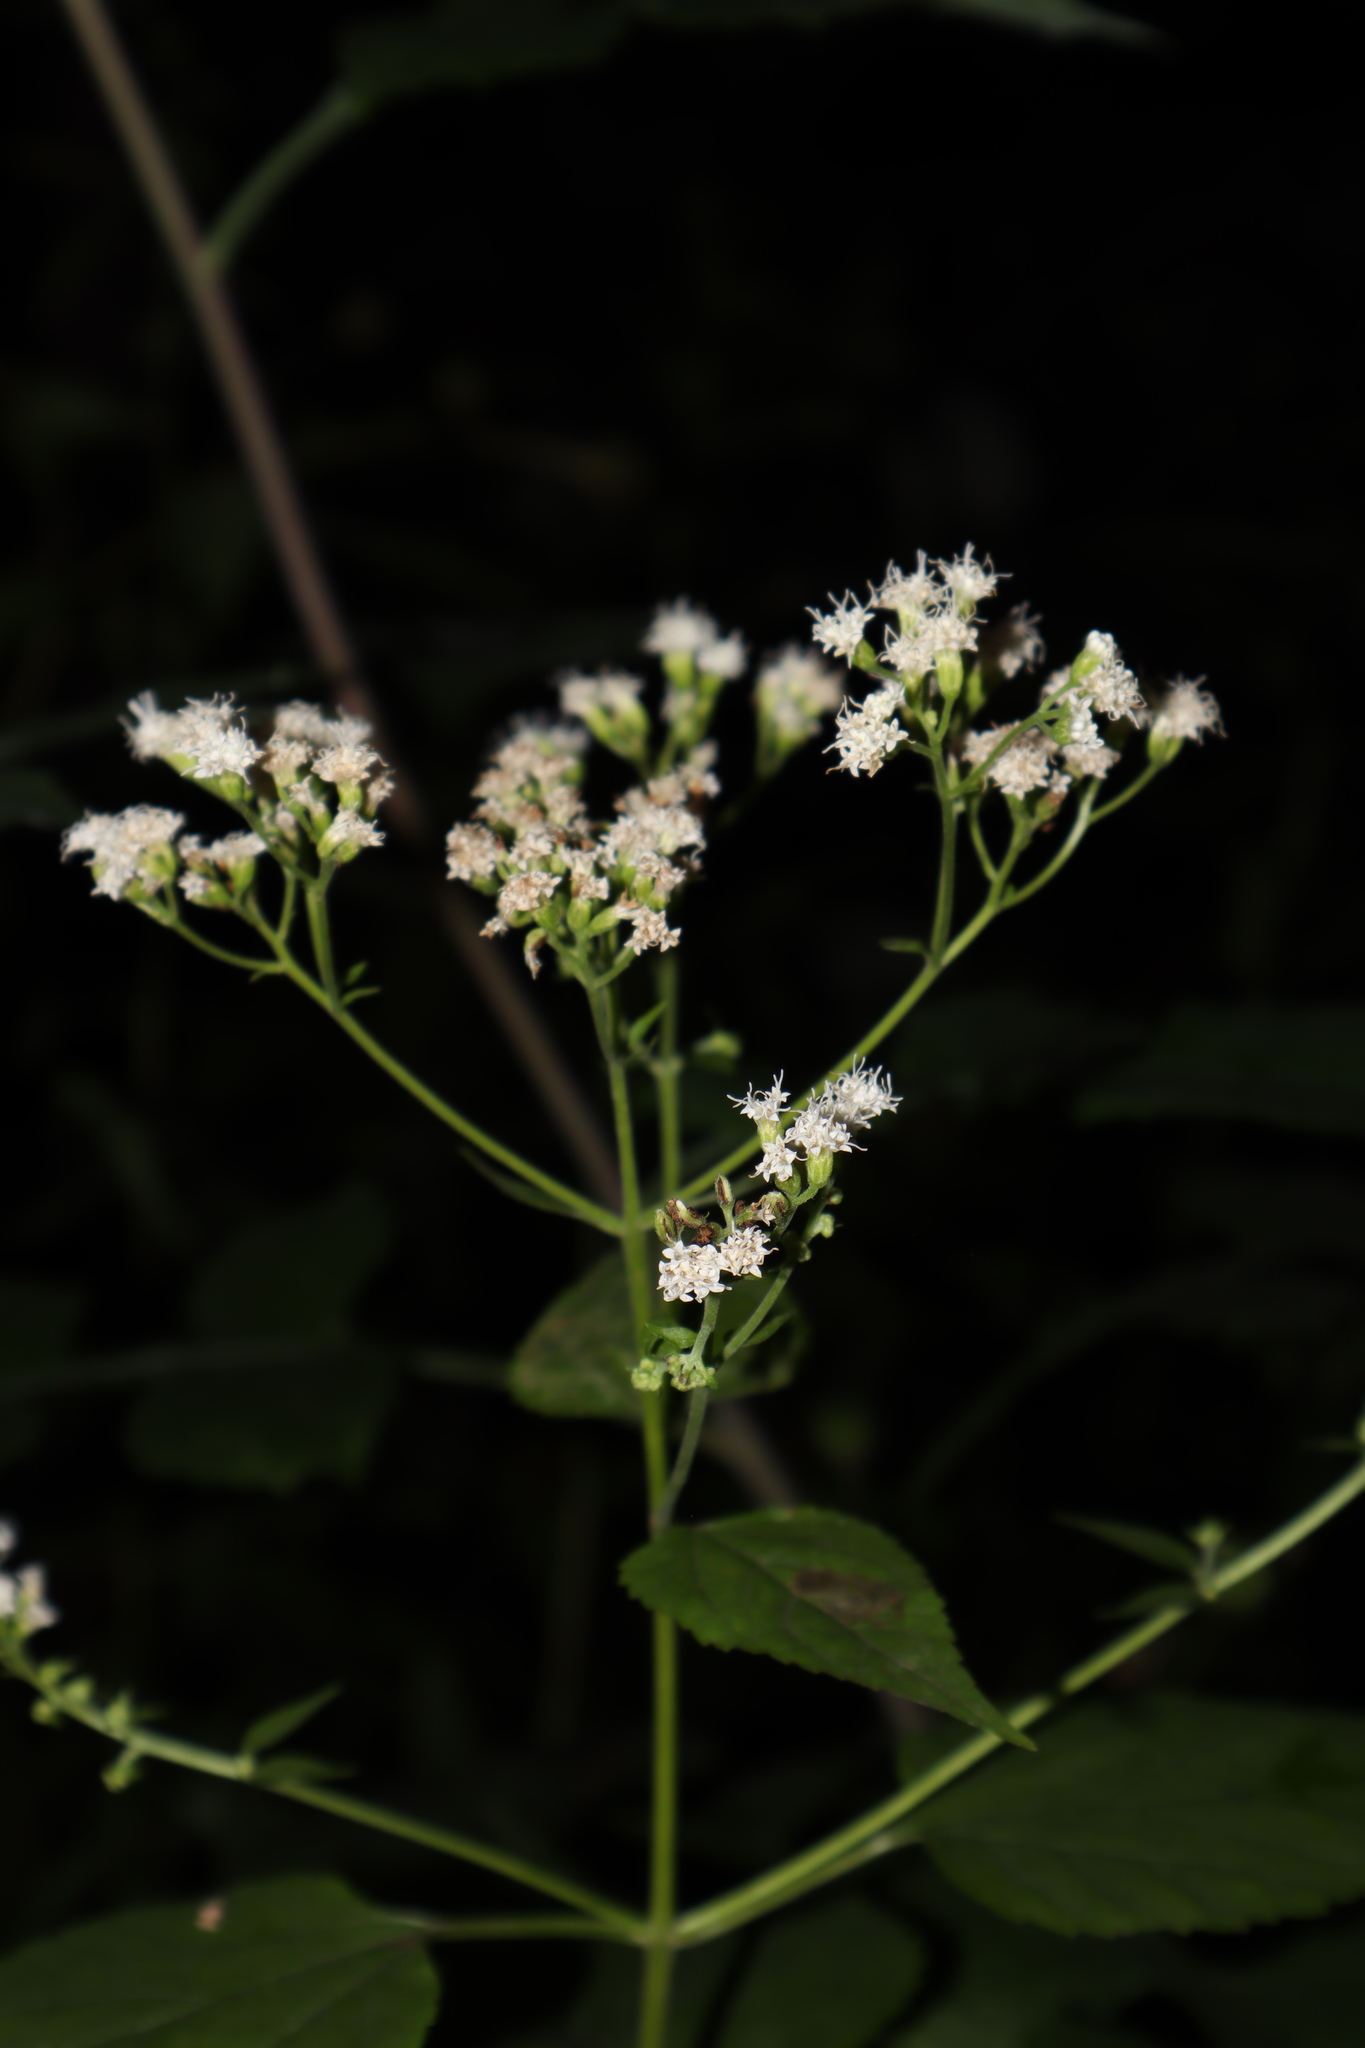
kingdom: Plantae
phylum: Tracheophyta
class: Magnoliopsida
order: Asterales
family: Asteraceae
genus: Ageratina
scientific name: Ageratina altissima
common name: White snakeroot
